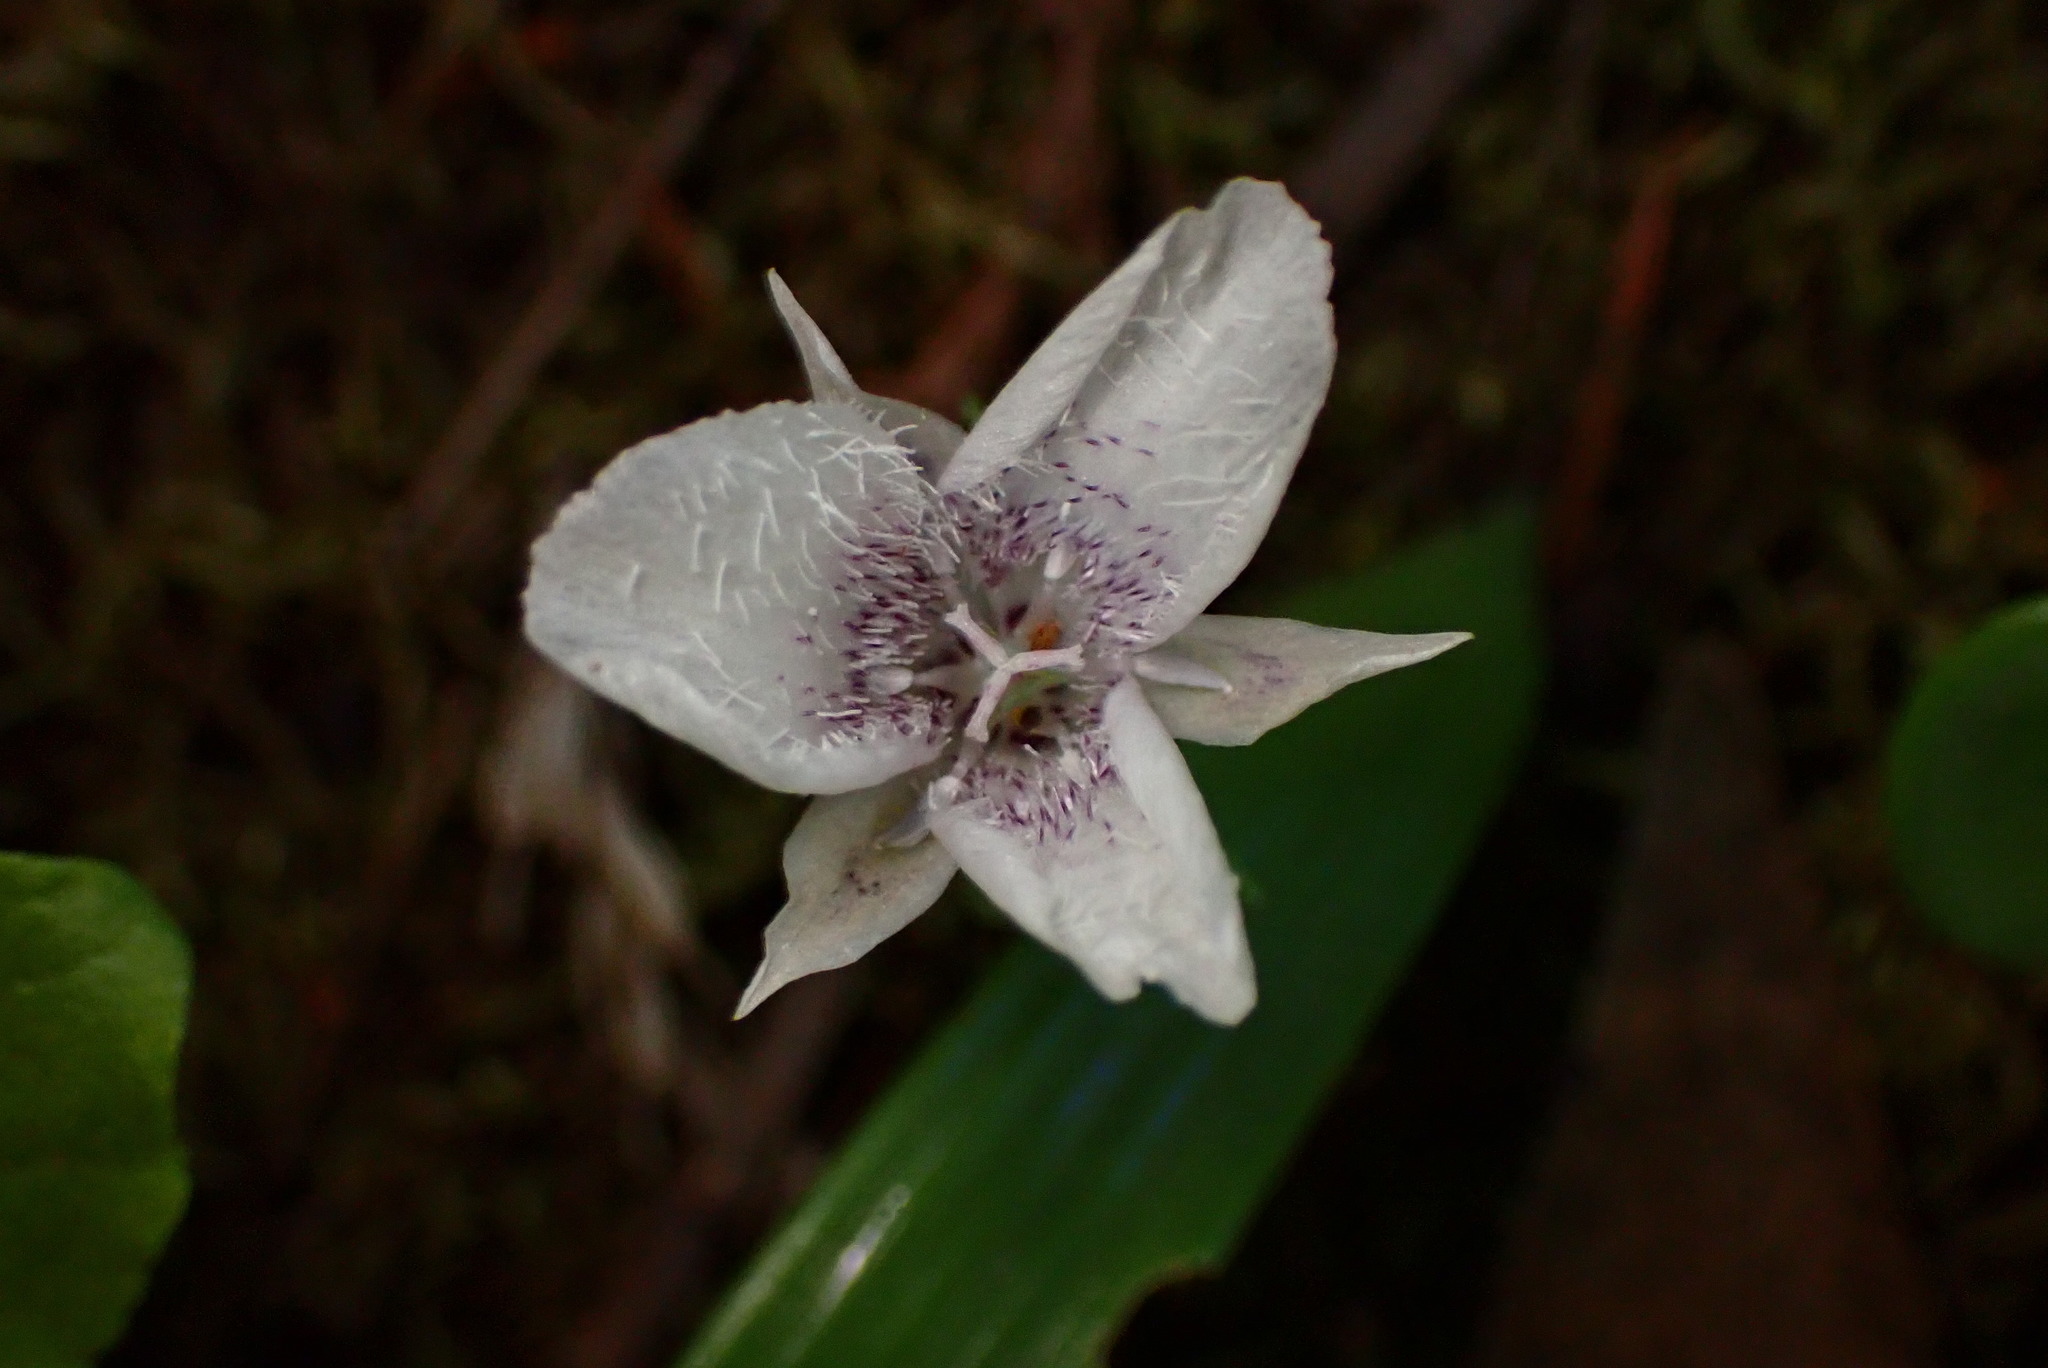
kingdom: Plantae
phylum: Tracheophyta
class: Liliopsida
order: Liliales
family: Liliaceae
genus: Calochortus
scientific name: Calochortus tolmiei
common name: Pussy-ears
